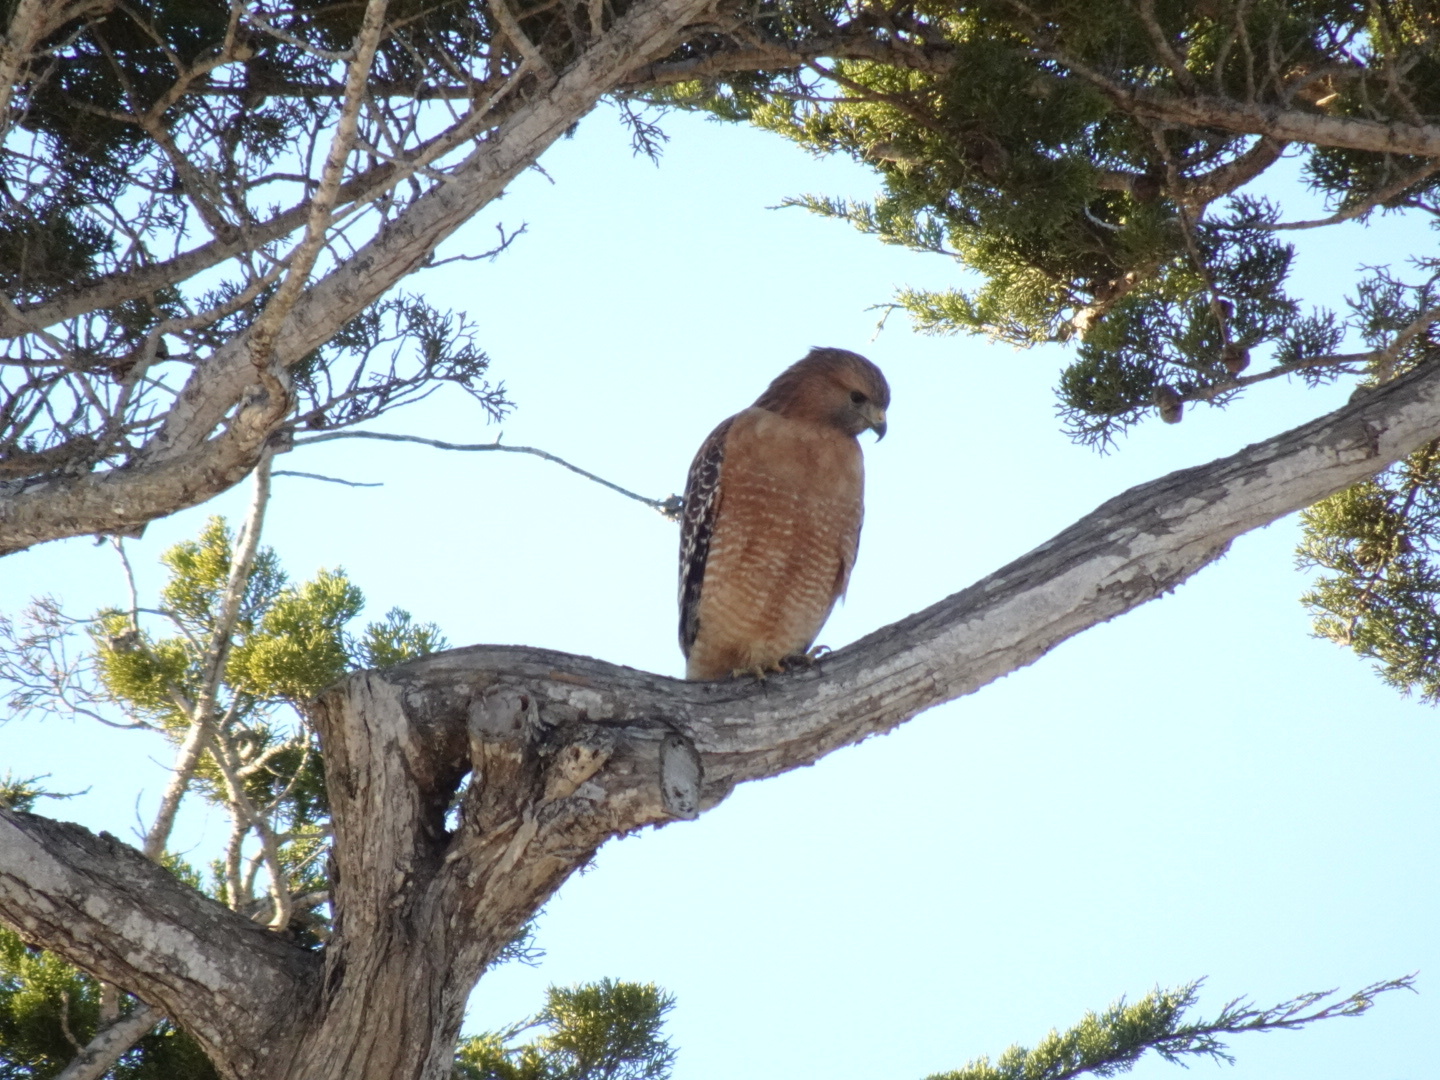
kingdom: Animalia
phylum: Chordata
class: Aves
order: Accipitriformes
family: Accipitridae
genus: Buteo
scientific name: Buteo lineatus
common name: Red-shouldered hawk
